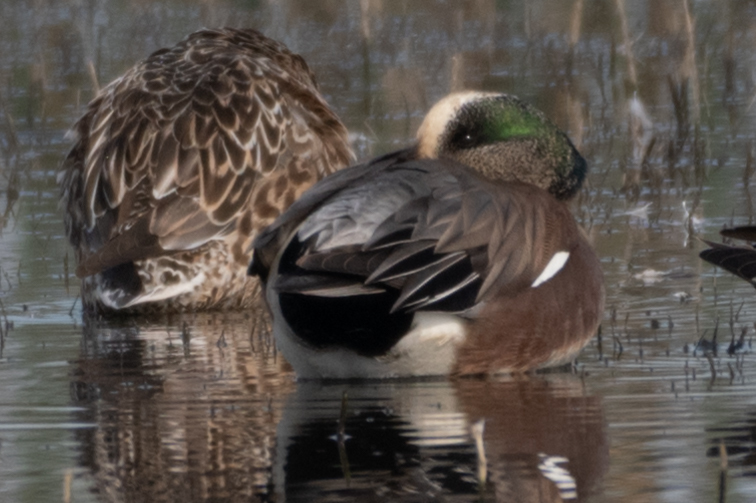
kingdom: Animalia
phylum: Chordata
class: Aves
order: Anseriformes
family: Anatidae
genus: Mareca
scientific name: Mareca americana
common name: American wigeon
